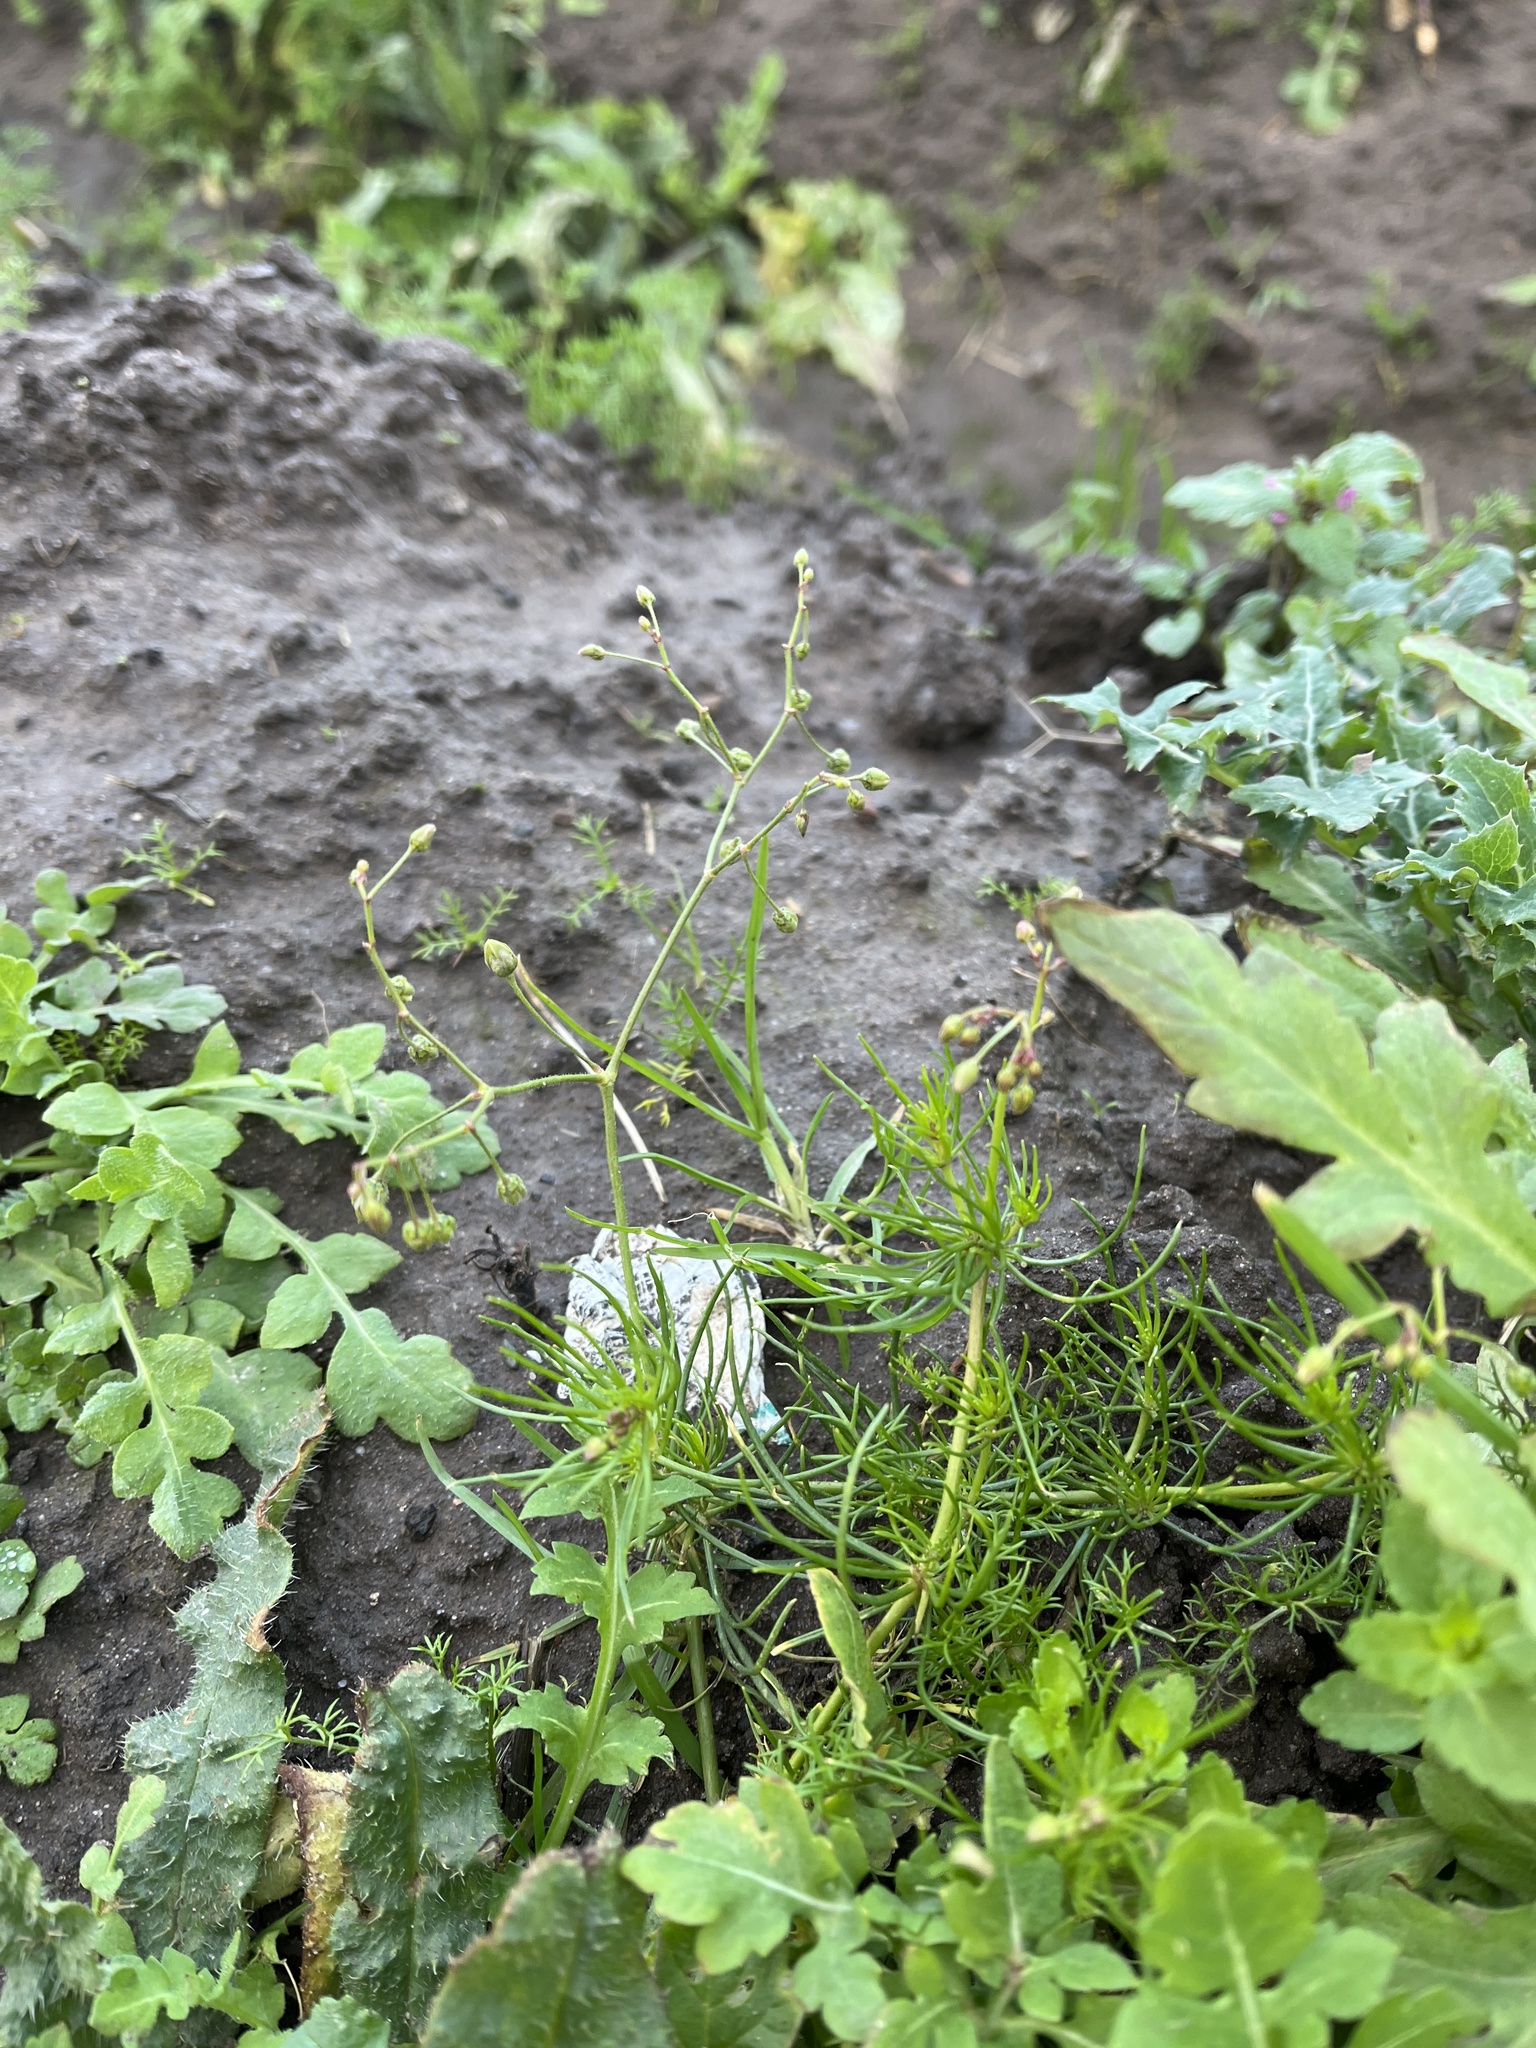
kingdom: Plantae
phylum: Tracheophyta
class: Magnoliopsida
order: Caryophyllales
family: Caryophyllaceae
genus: Spergula
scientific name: Spergula arvensis
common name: Corn spurrey
